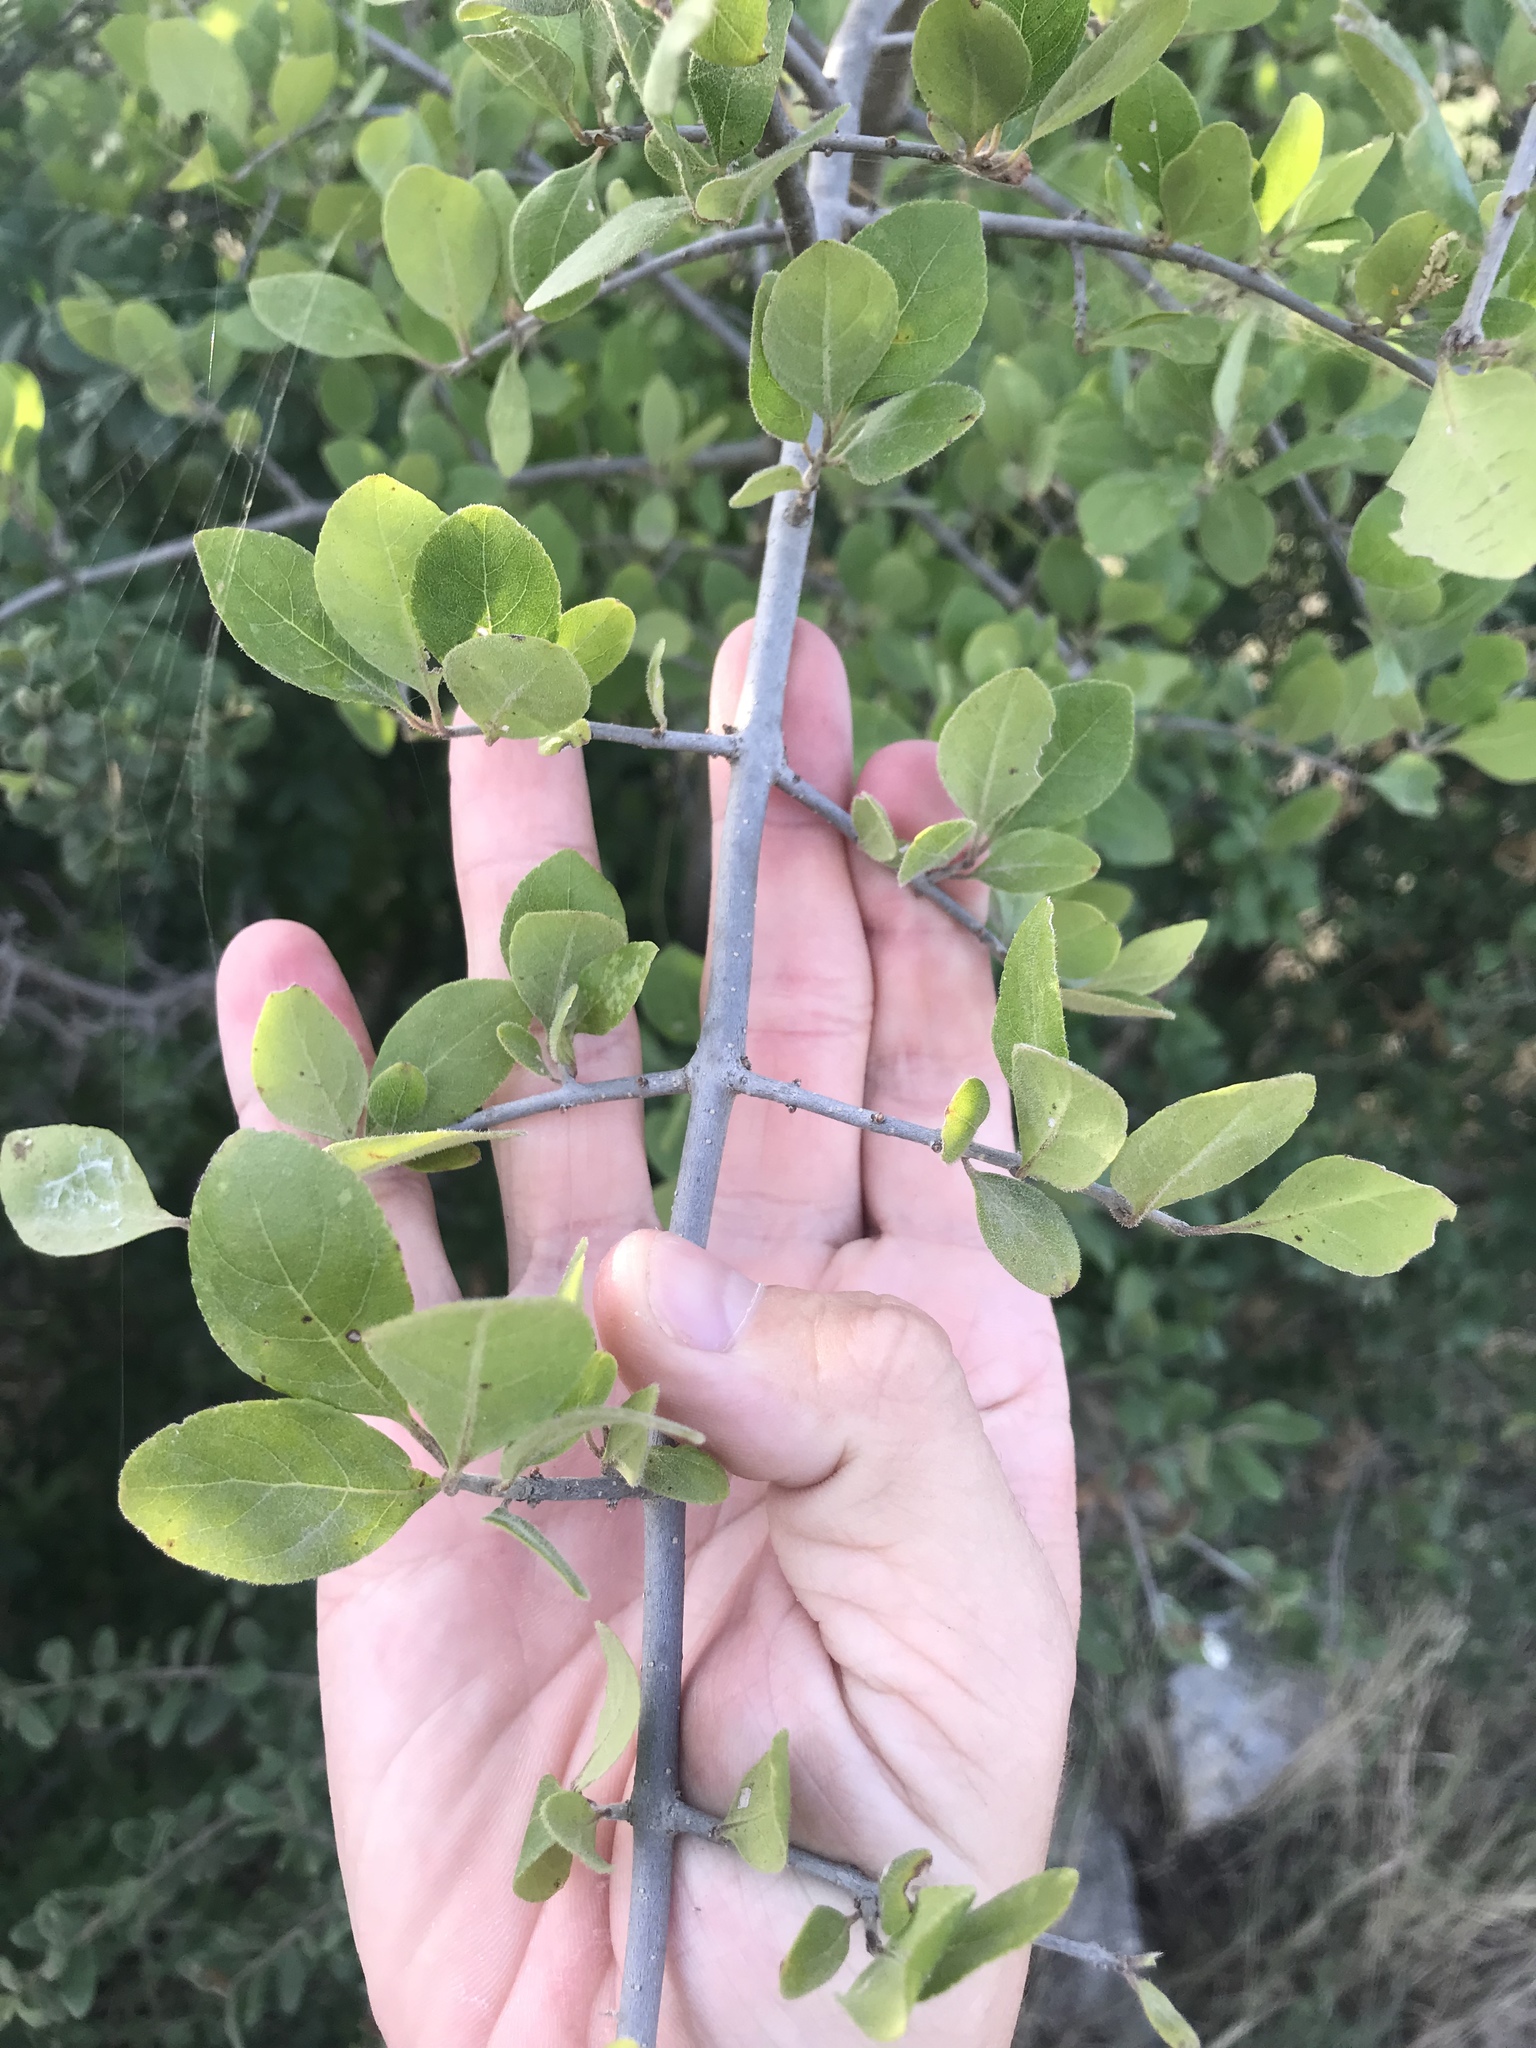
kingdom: Plantae
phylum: Tracheophyta
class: Magnoliopsida
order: Lamiales
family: Oleaceae
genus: Forestiera
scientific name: Forestiera pubescens
